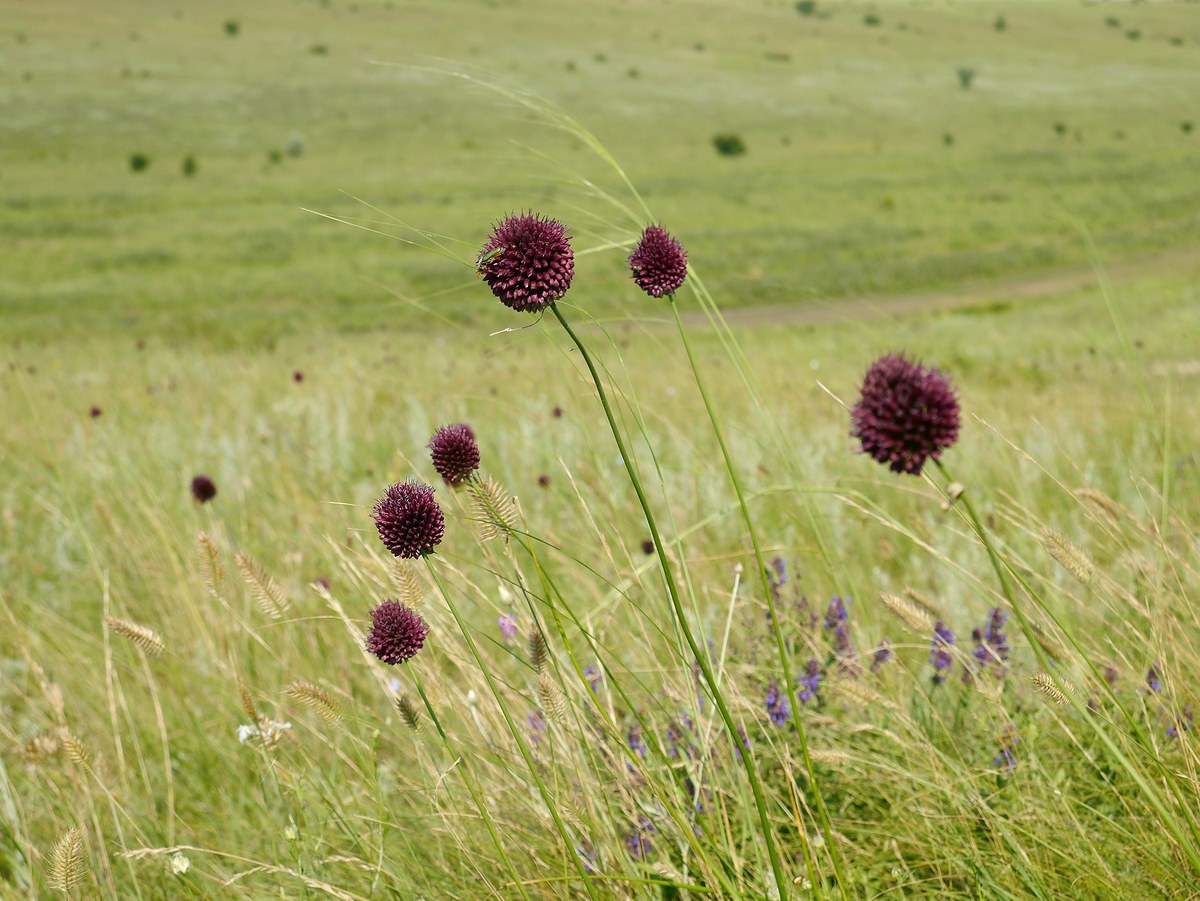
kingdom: Plantae
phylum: Tracheophyta
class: Liliopsida
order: Asparagales
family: Amaryllidaceae
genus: Allium
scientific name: Allium sphaerocephalon
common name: Round-headed leek
